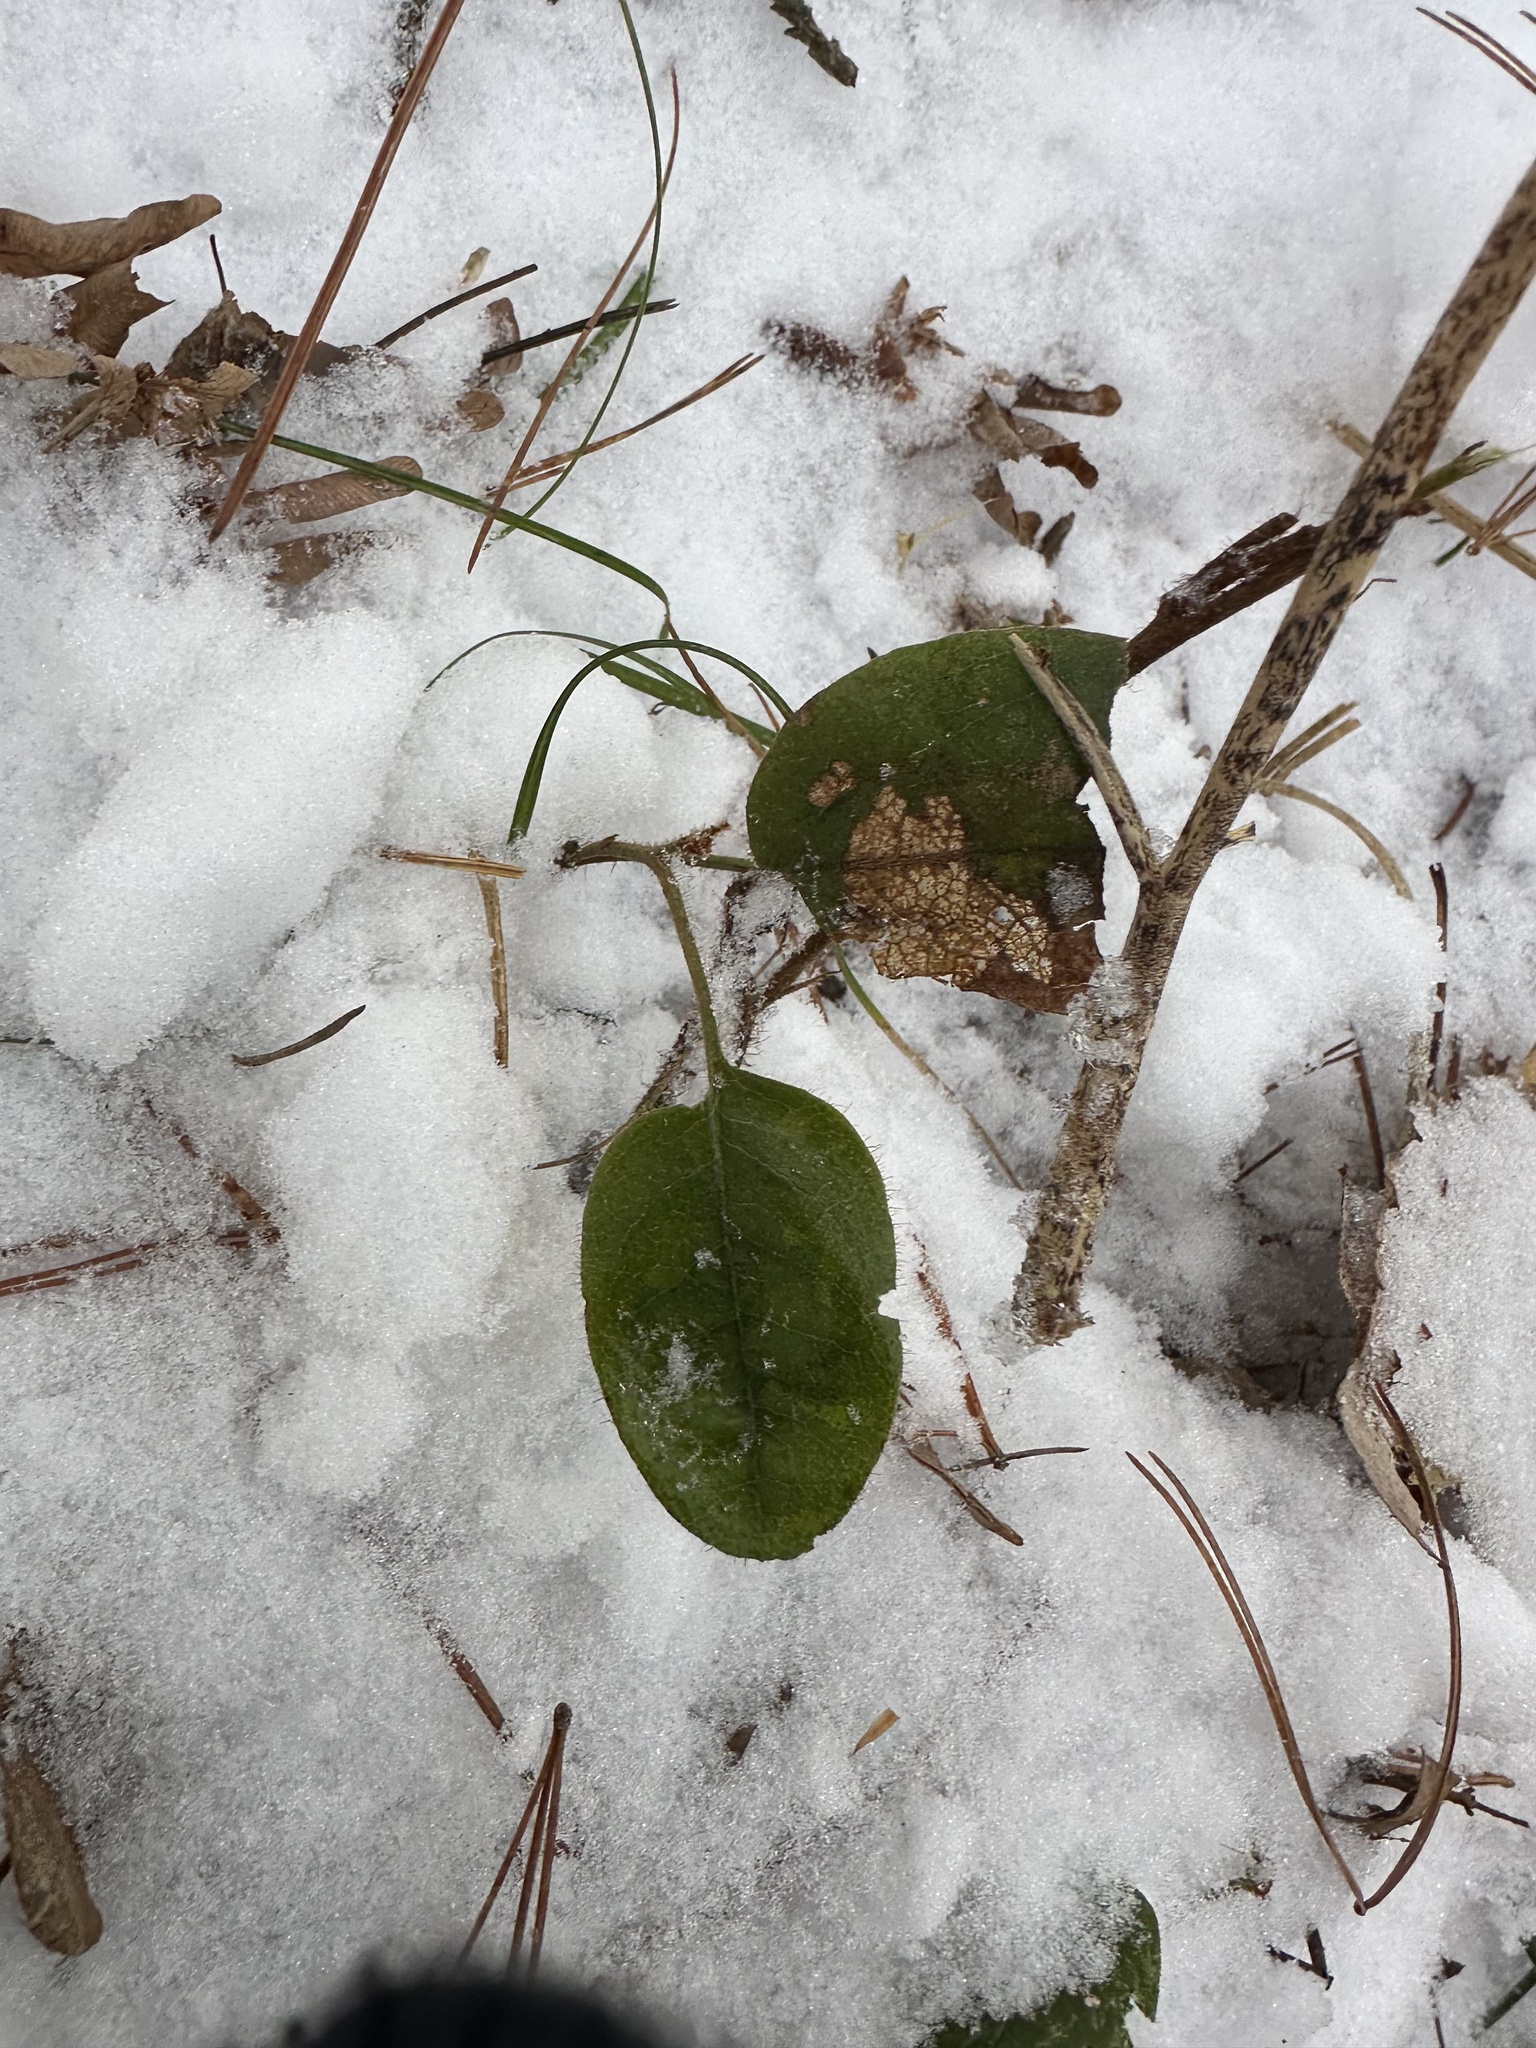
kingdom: Plantae
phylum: Tracheophyta
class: Magnoliopsida
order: Ericales
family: Ericaceae
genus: Epigaea
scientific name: Epigaea repens
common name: Gravelroot
